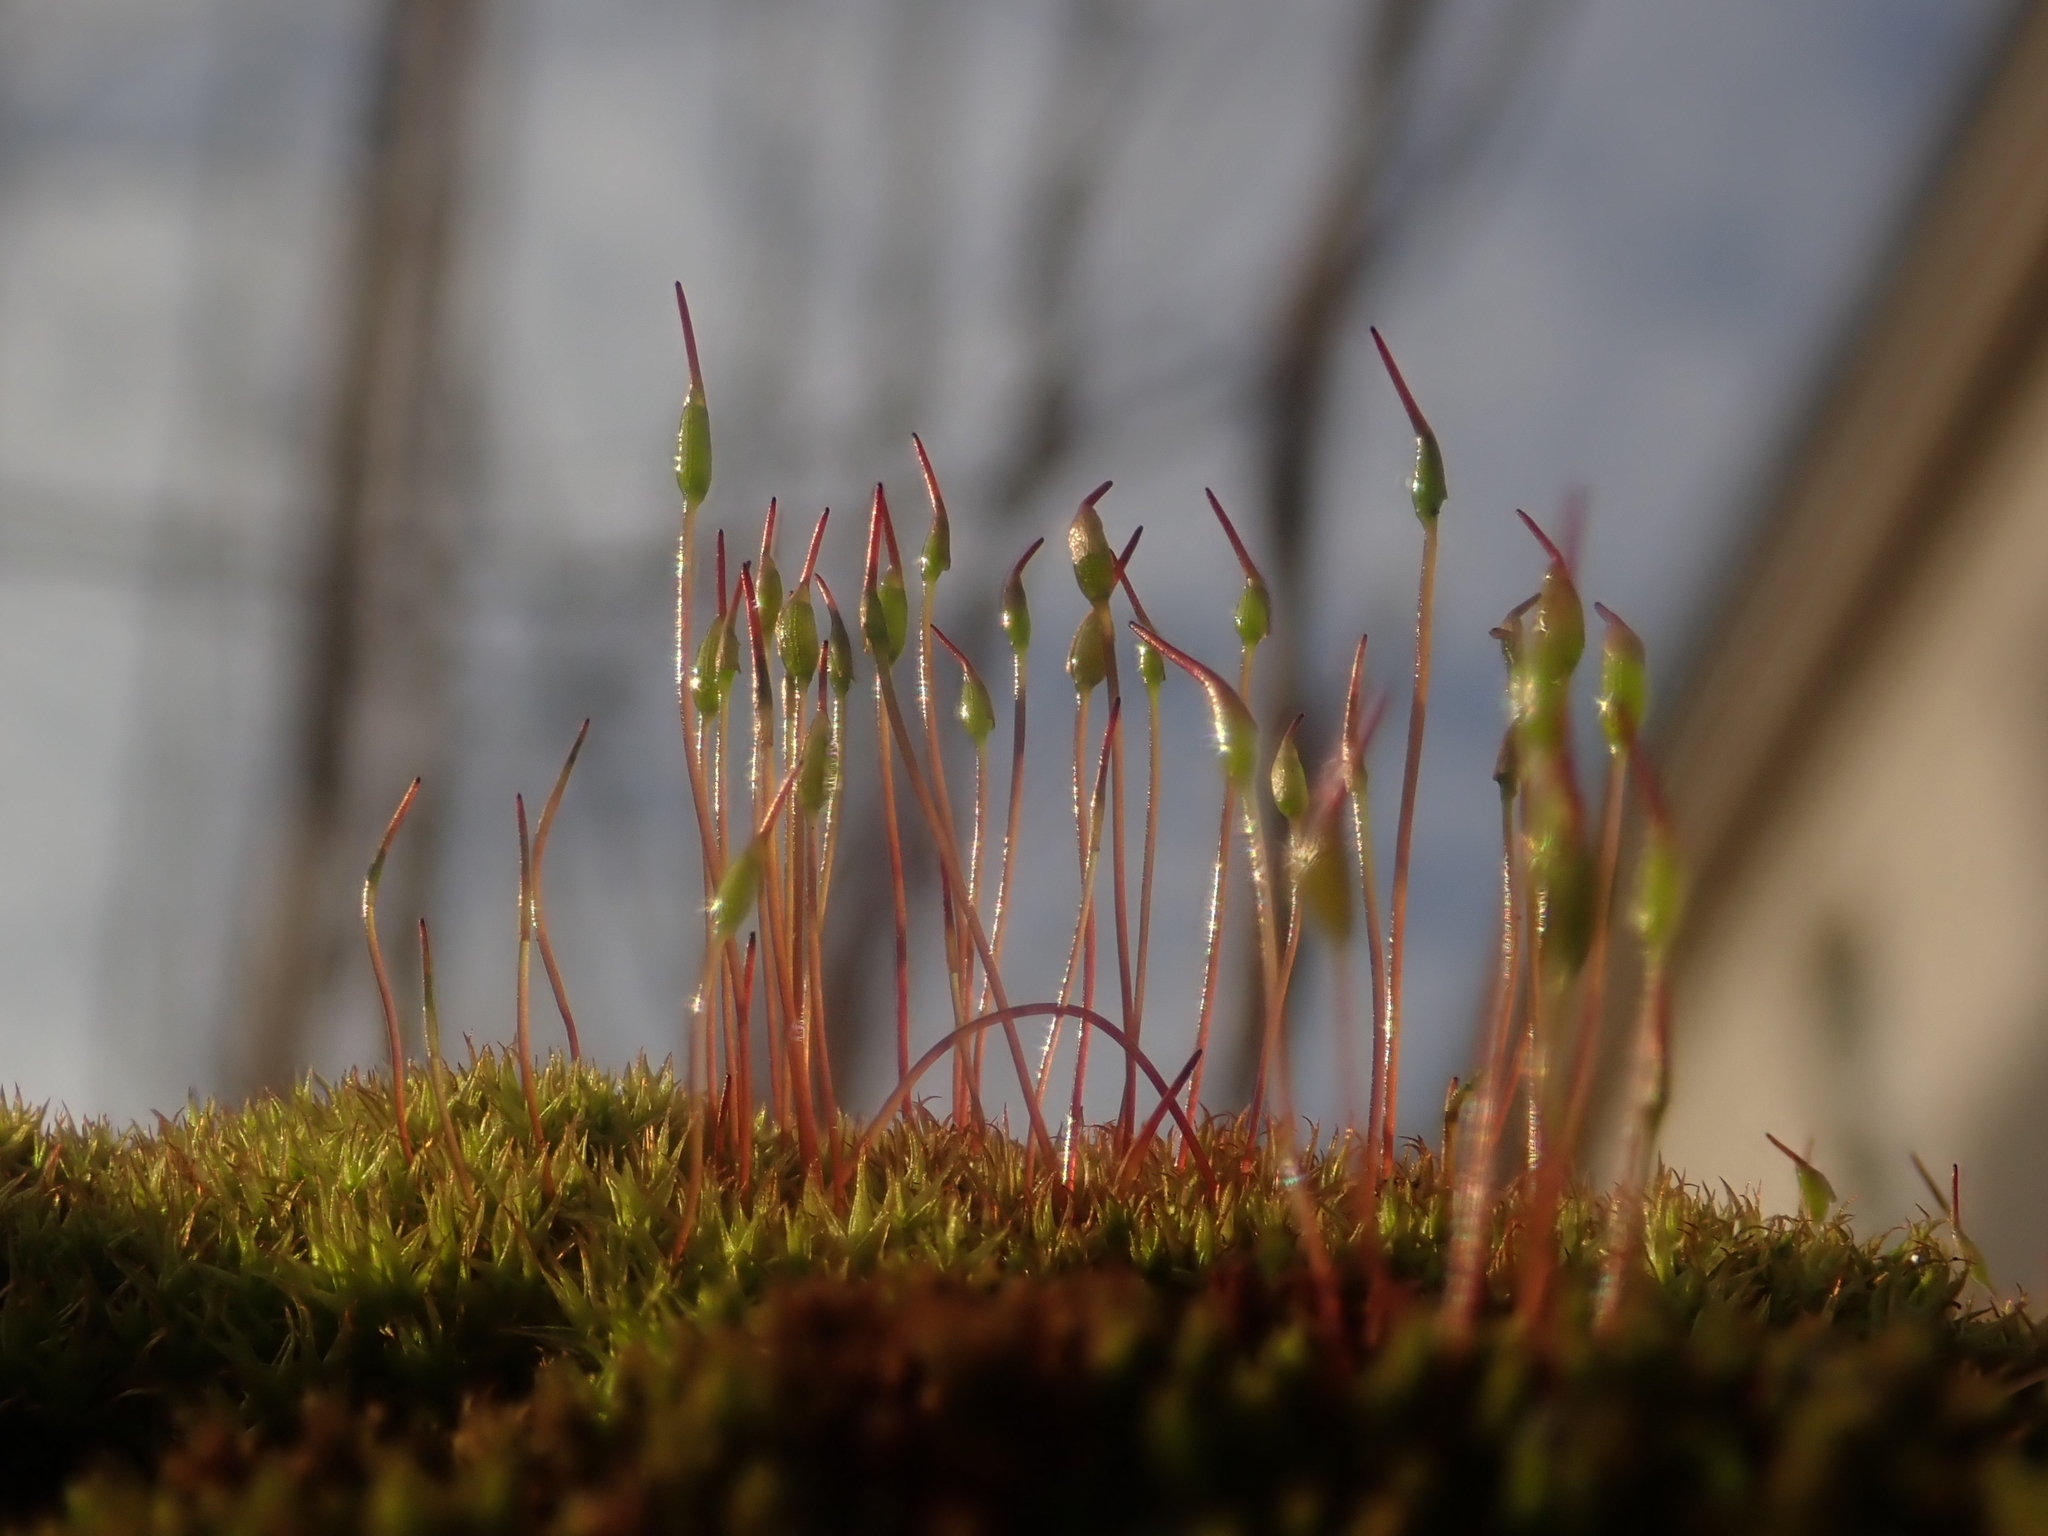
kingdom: Plantae
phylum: Bryophyta
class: Bryopsida
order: Dicranales
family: Ditrichaceae
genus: Ceratodon
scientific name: Ceratodon purpureus
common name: Redshank
